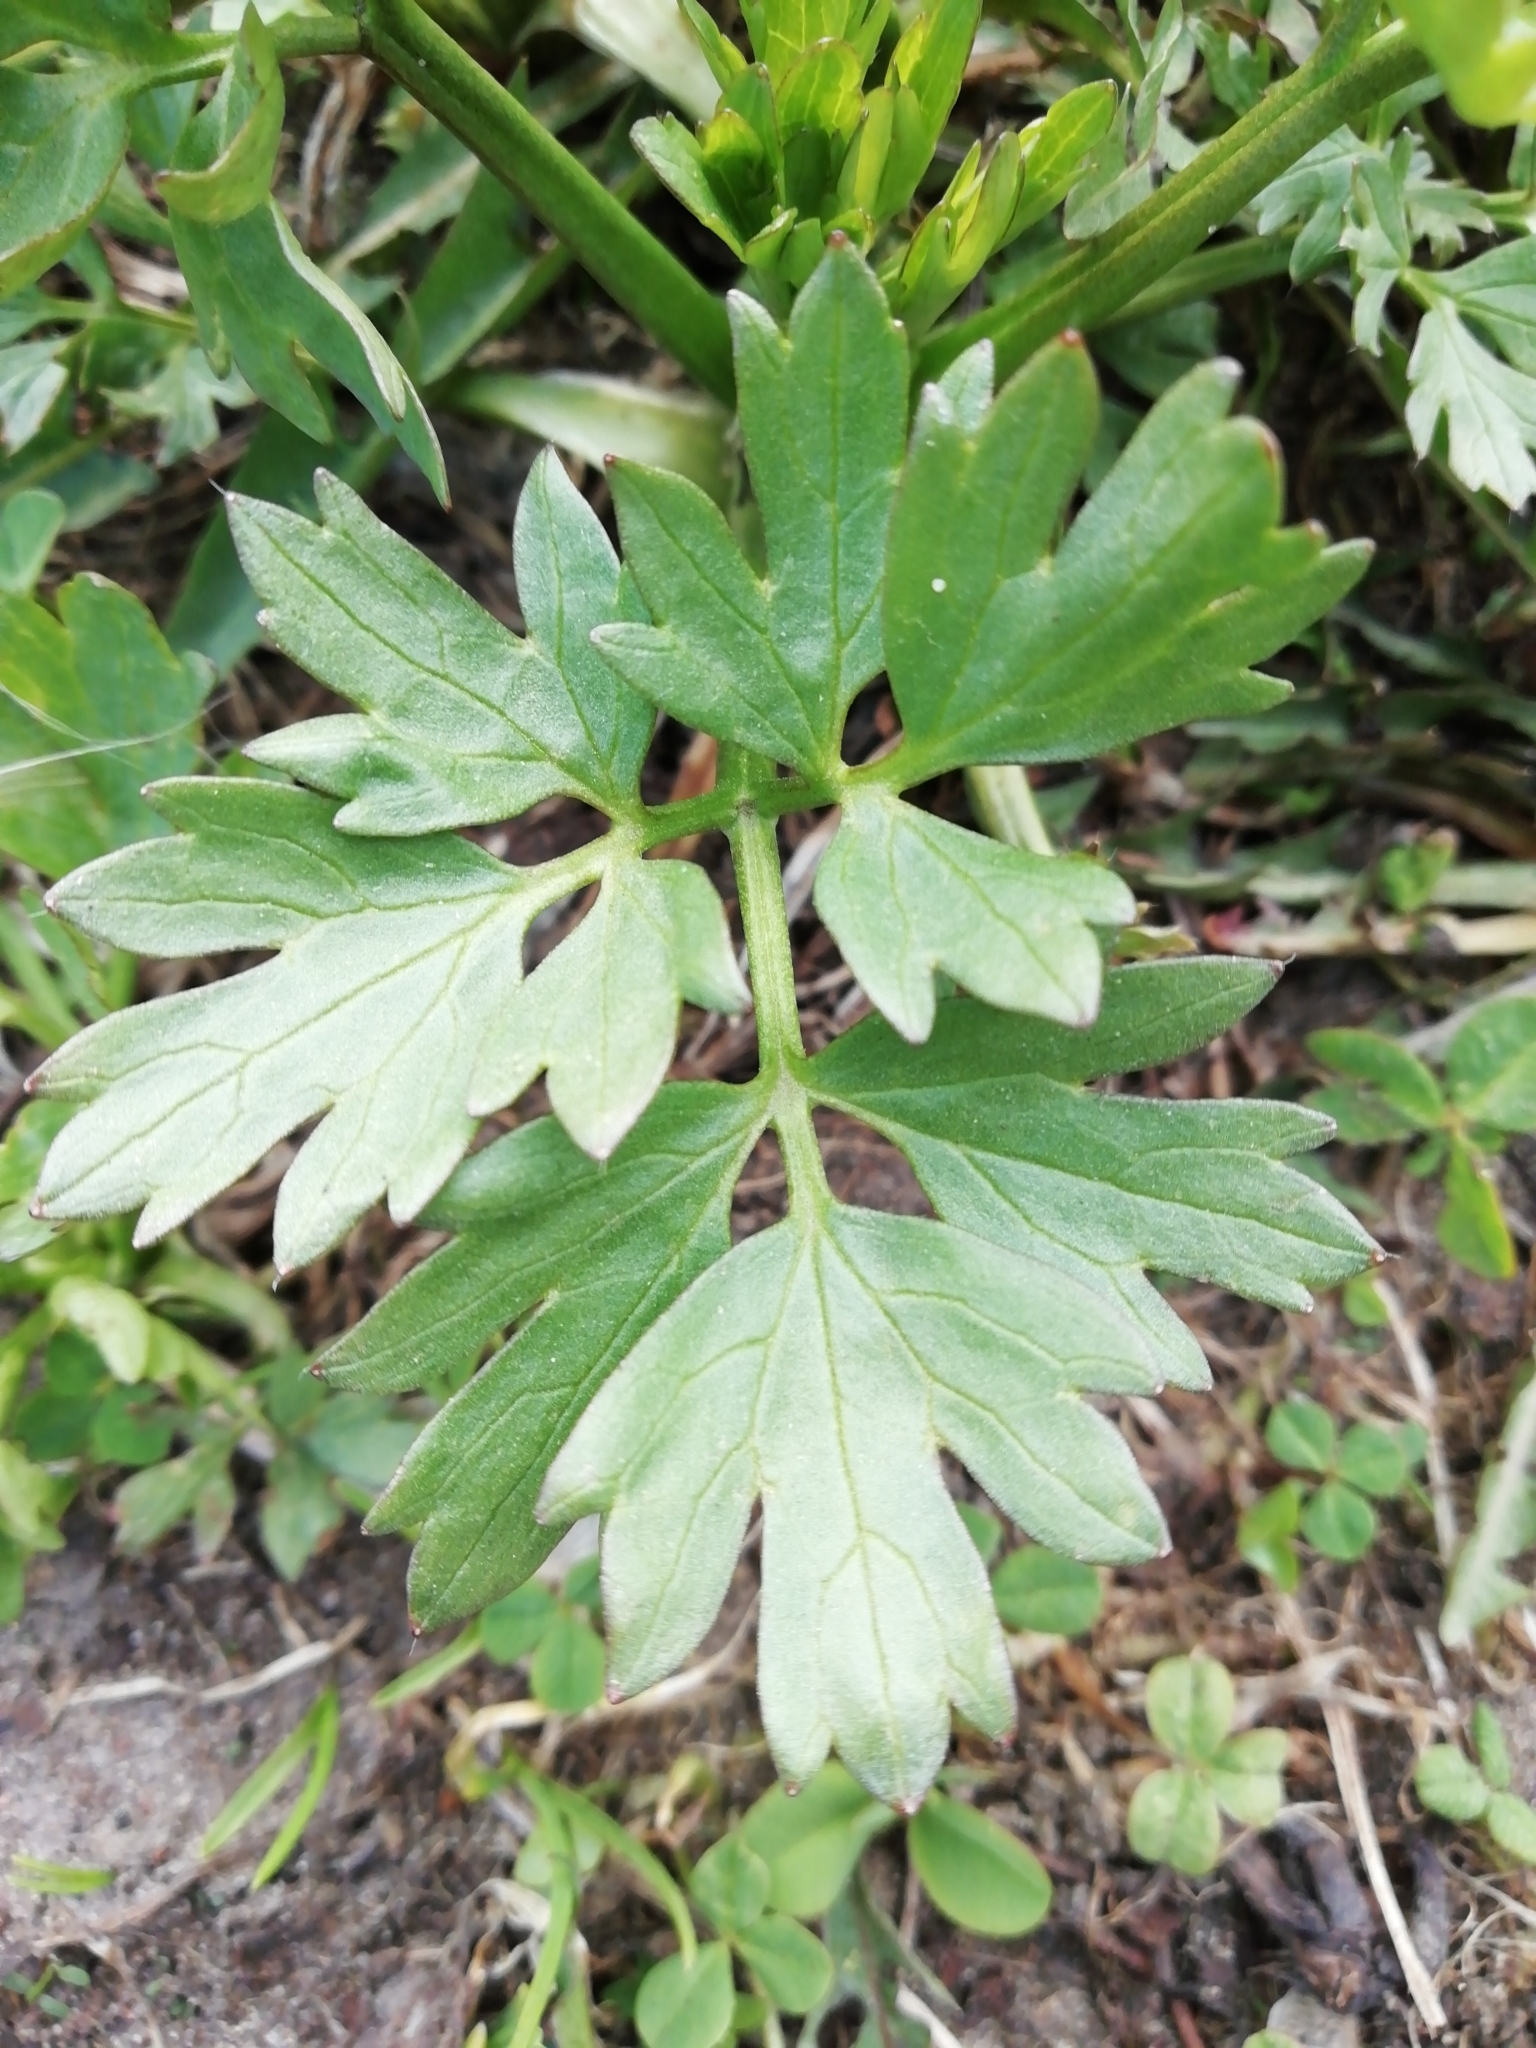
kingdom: Plantae
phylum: Tracheophyta
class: Magnoliopsida
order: Ranunculales
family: Ranunculaceae
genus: Ranunculus
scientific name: Ranunculus repens
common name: Creeping buttercup
